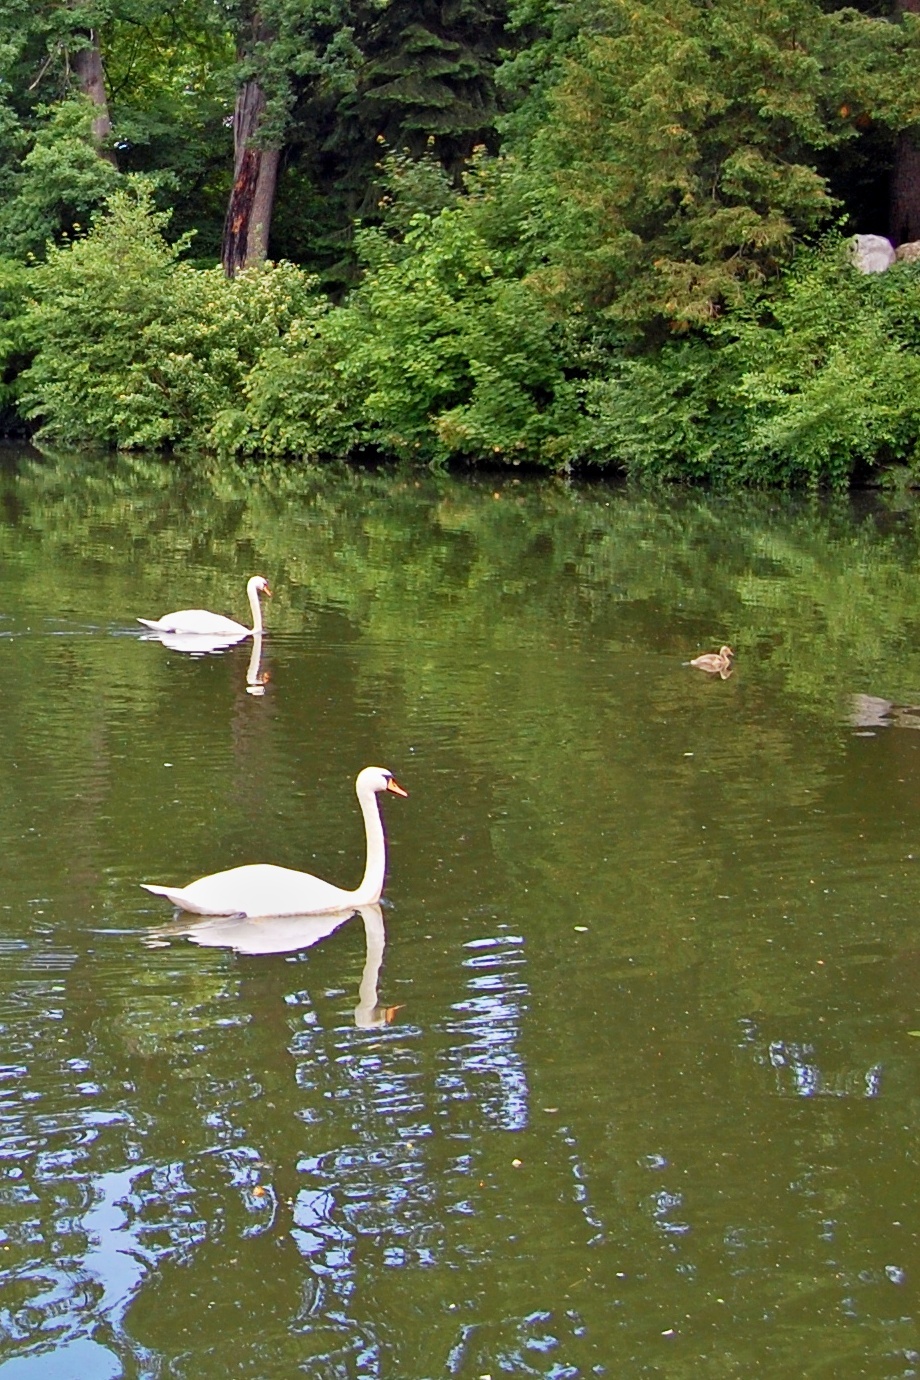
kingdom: Animalia
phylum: Chordata
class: Aves
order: Anseriformes
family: Anatidae
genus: Cygnus
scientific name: Cygnus olor
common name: Mute swan
